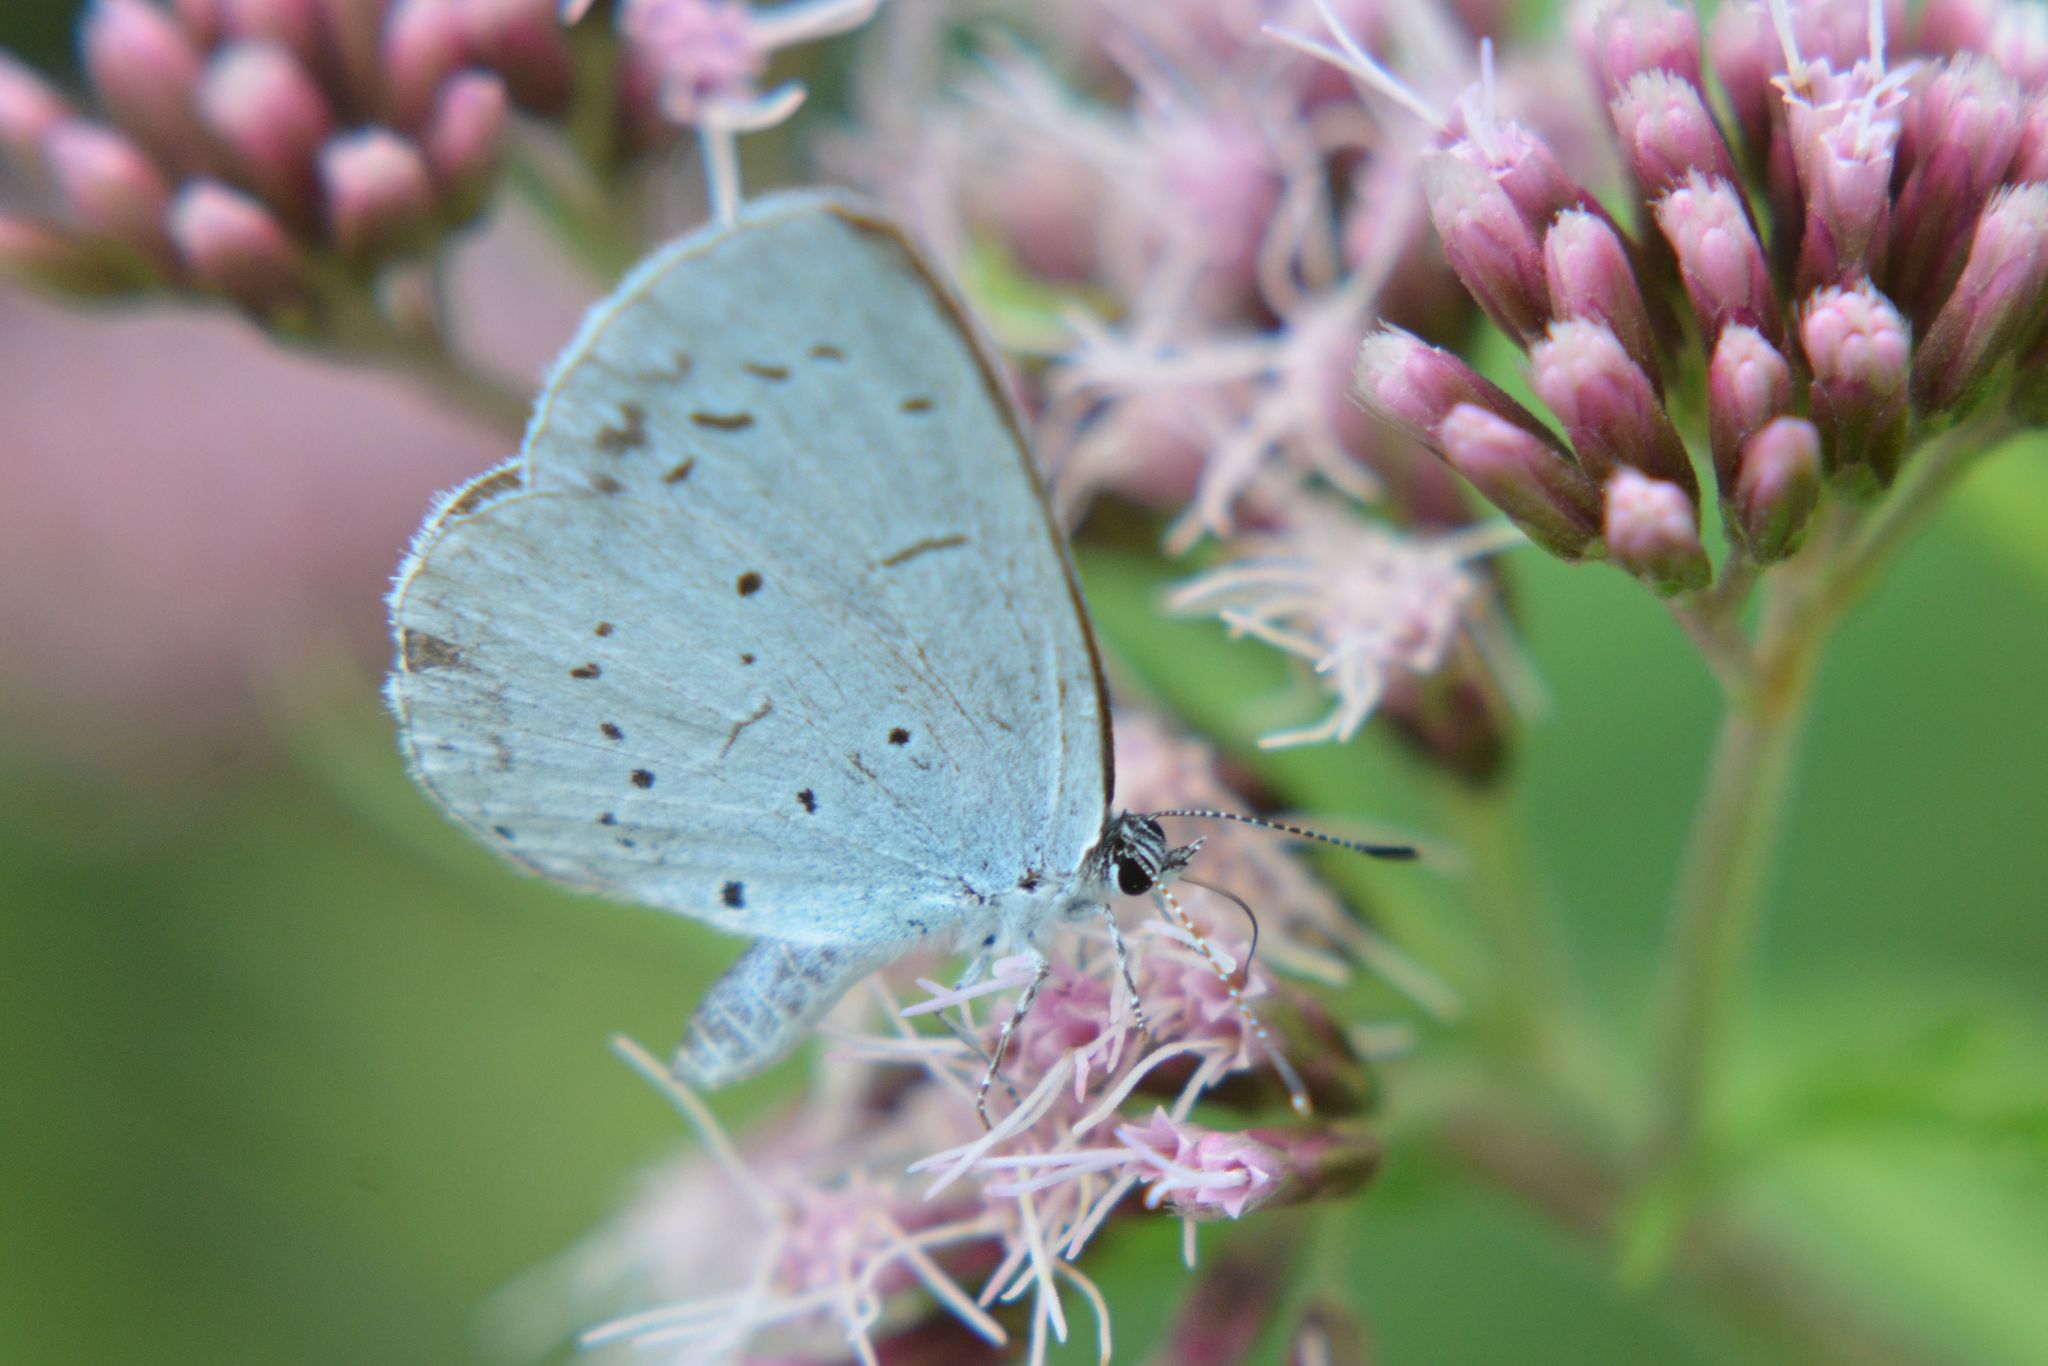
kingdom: Animalia
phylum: Arthropoda
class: Insecta
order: Lepidoptera
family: Lycaenidae
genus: Celastrina
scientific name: Celastrina argiolus
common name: Holly blue
